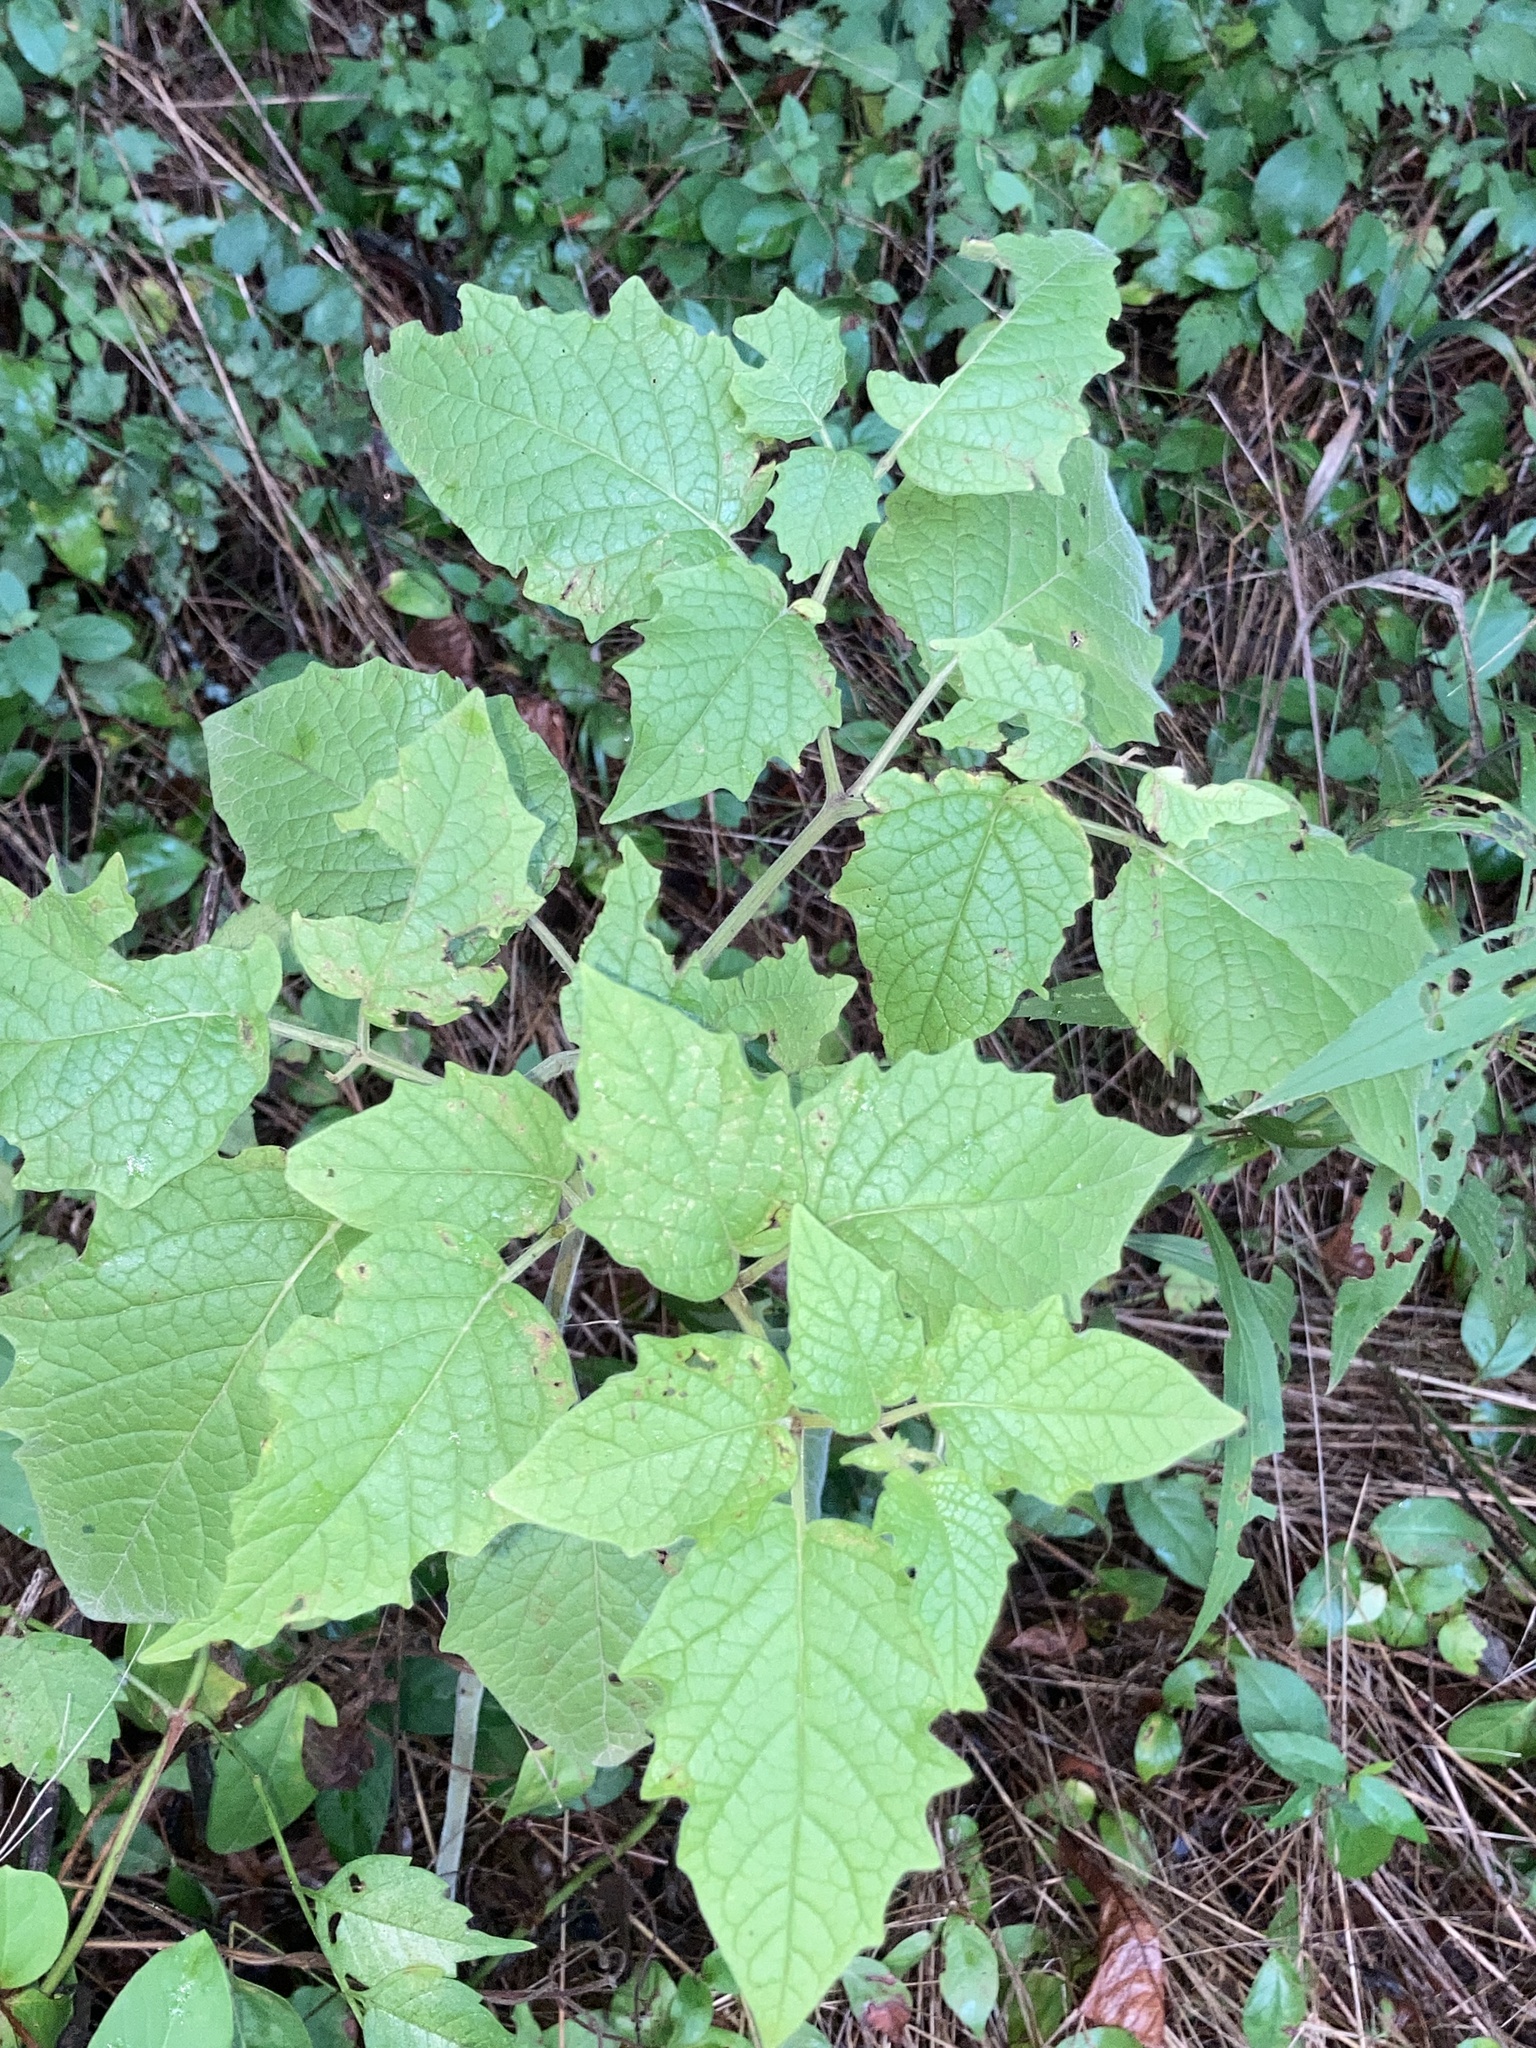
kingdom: Plantae
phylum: Tracheophyta
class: Magnoliopsida
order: Solanales
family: Solanaceae
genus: Physalis
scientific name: Physalis heterophylla
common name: Clammy ground-cherry
